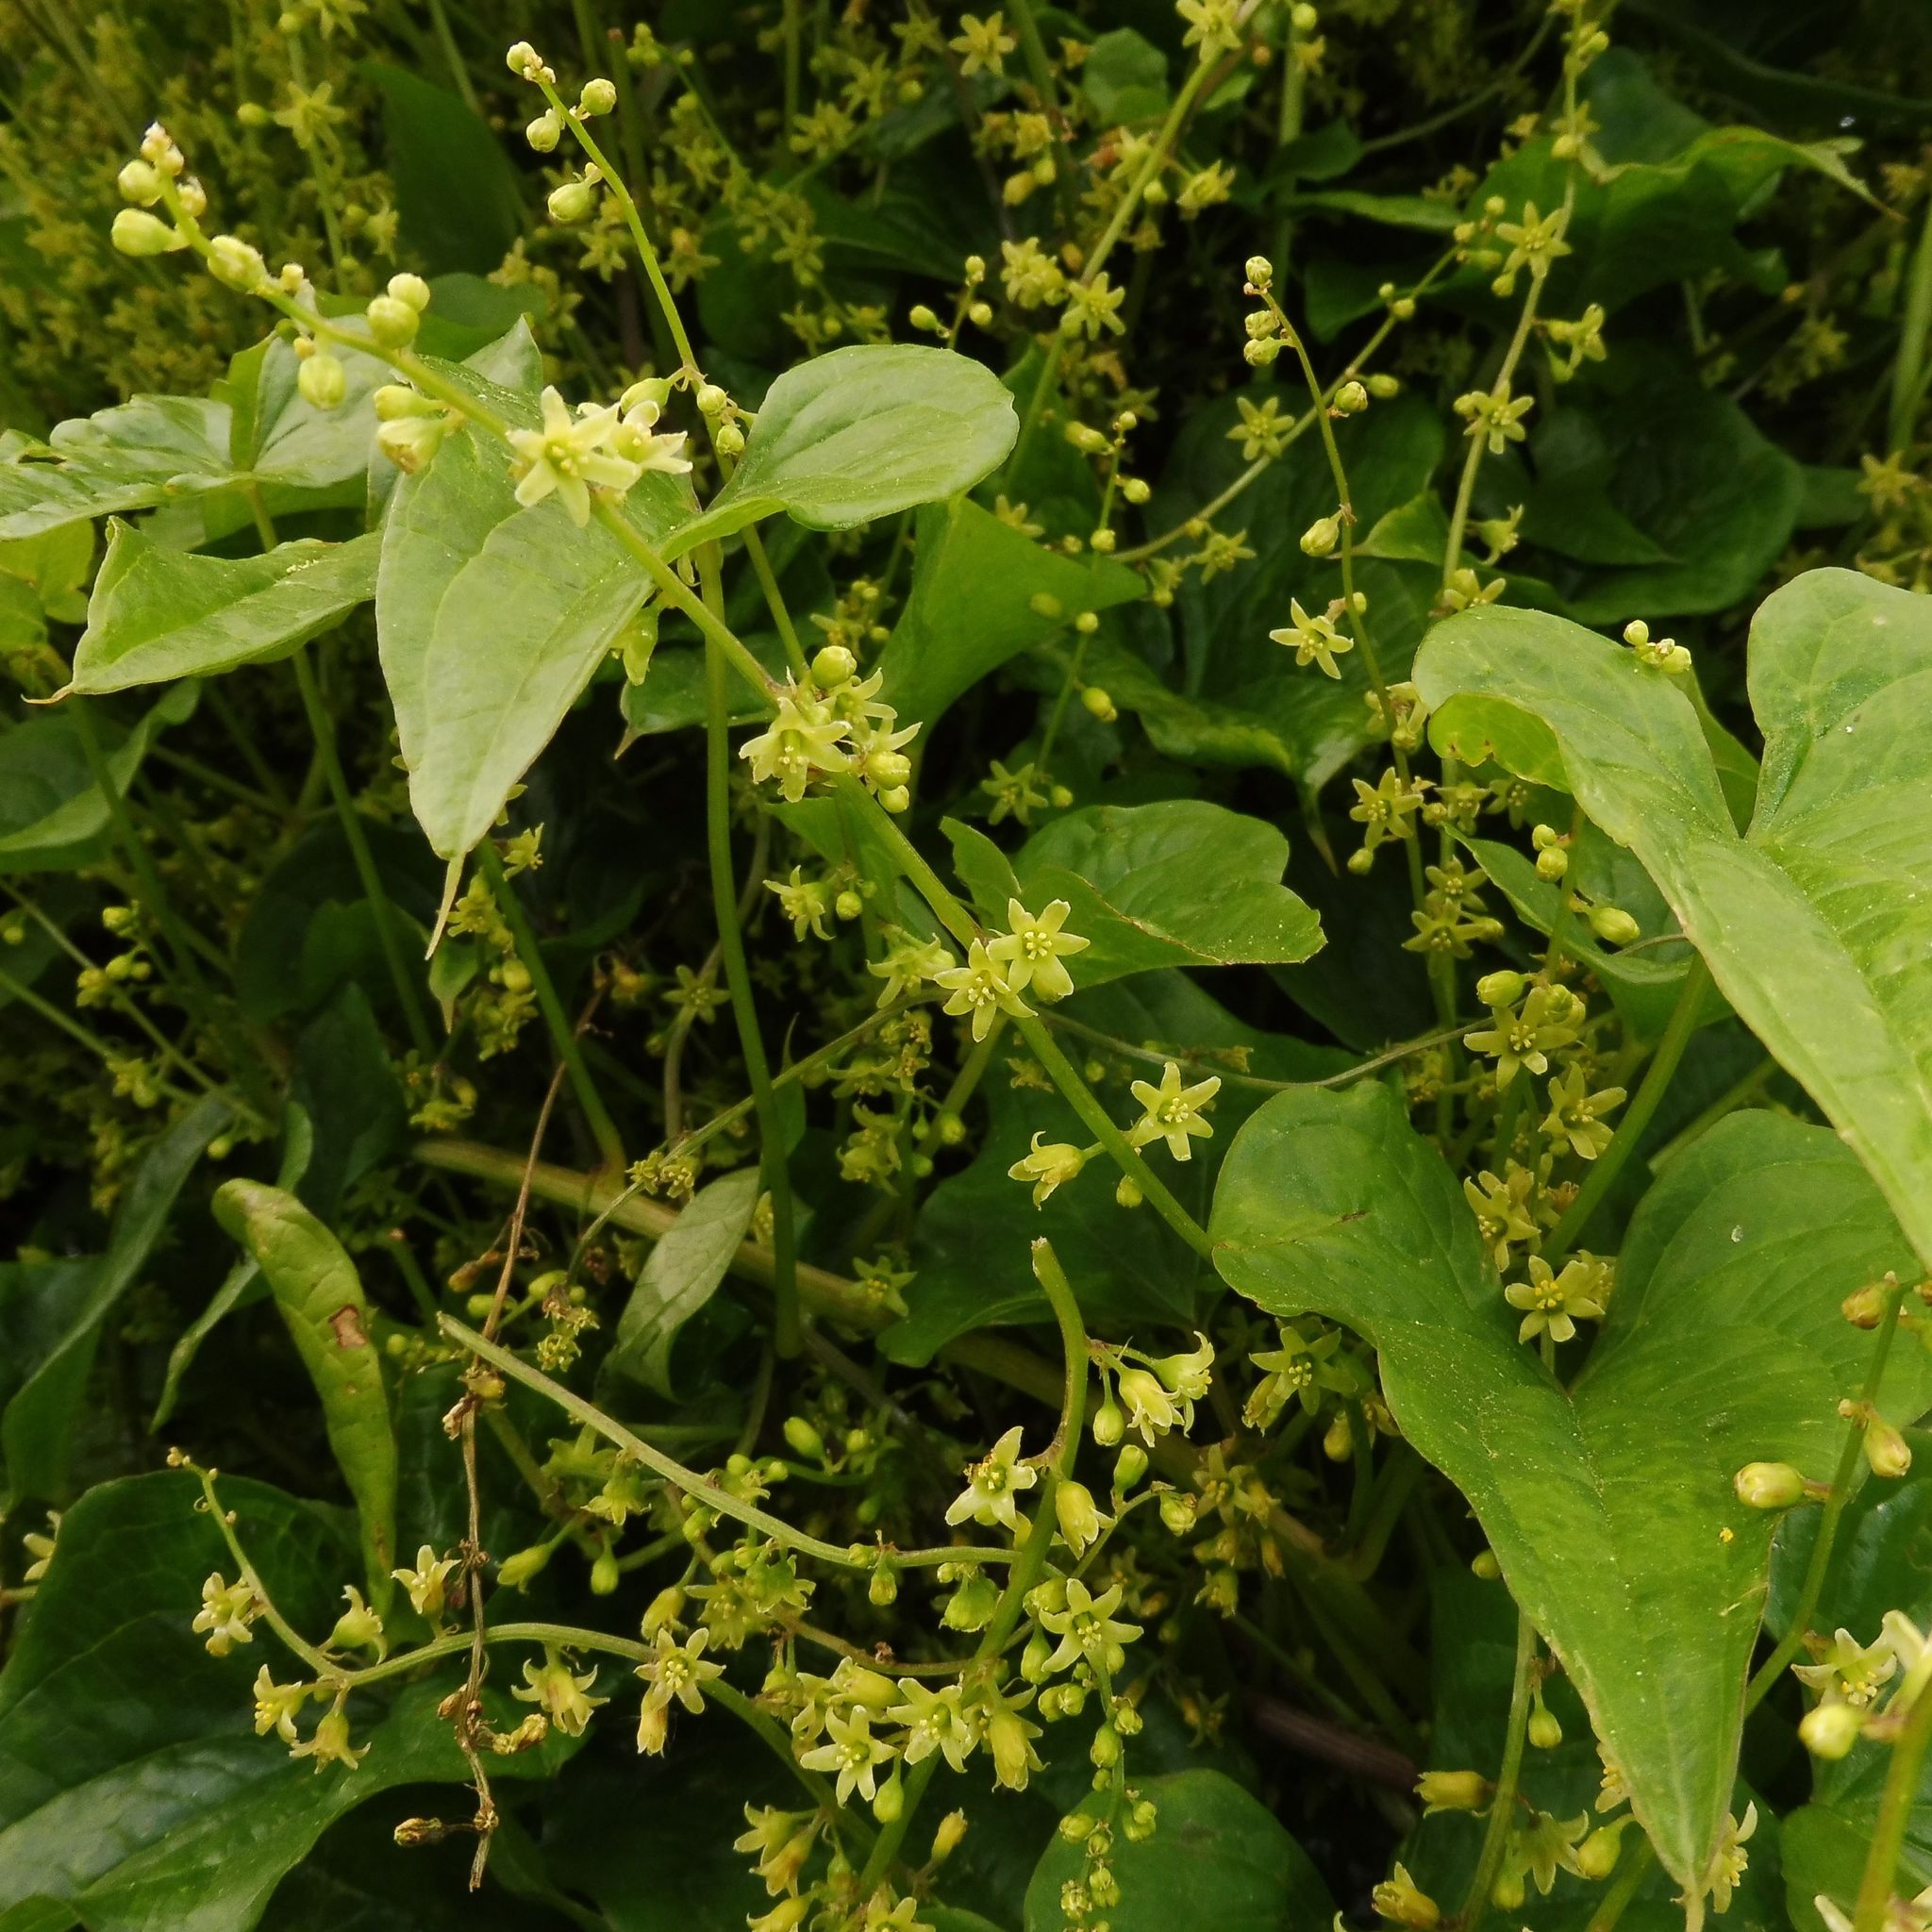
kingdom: Plantae
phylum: Tracheophyta
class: Liliopsida
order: Dioscoreales
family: Dioscoreaceae
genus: Dioscorea
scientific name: Dioscorea communis
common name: Black-bindweed
